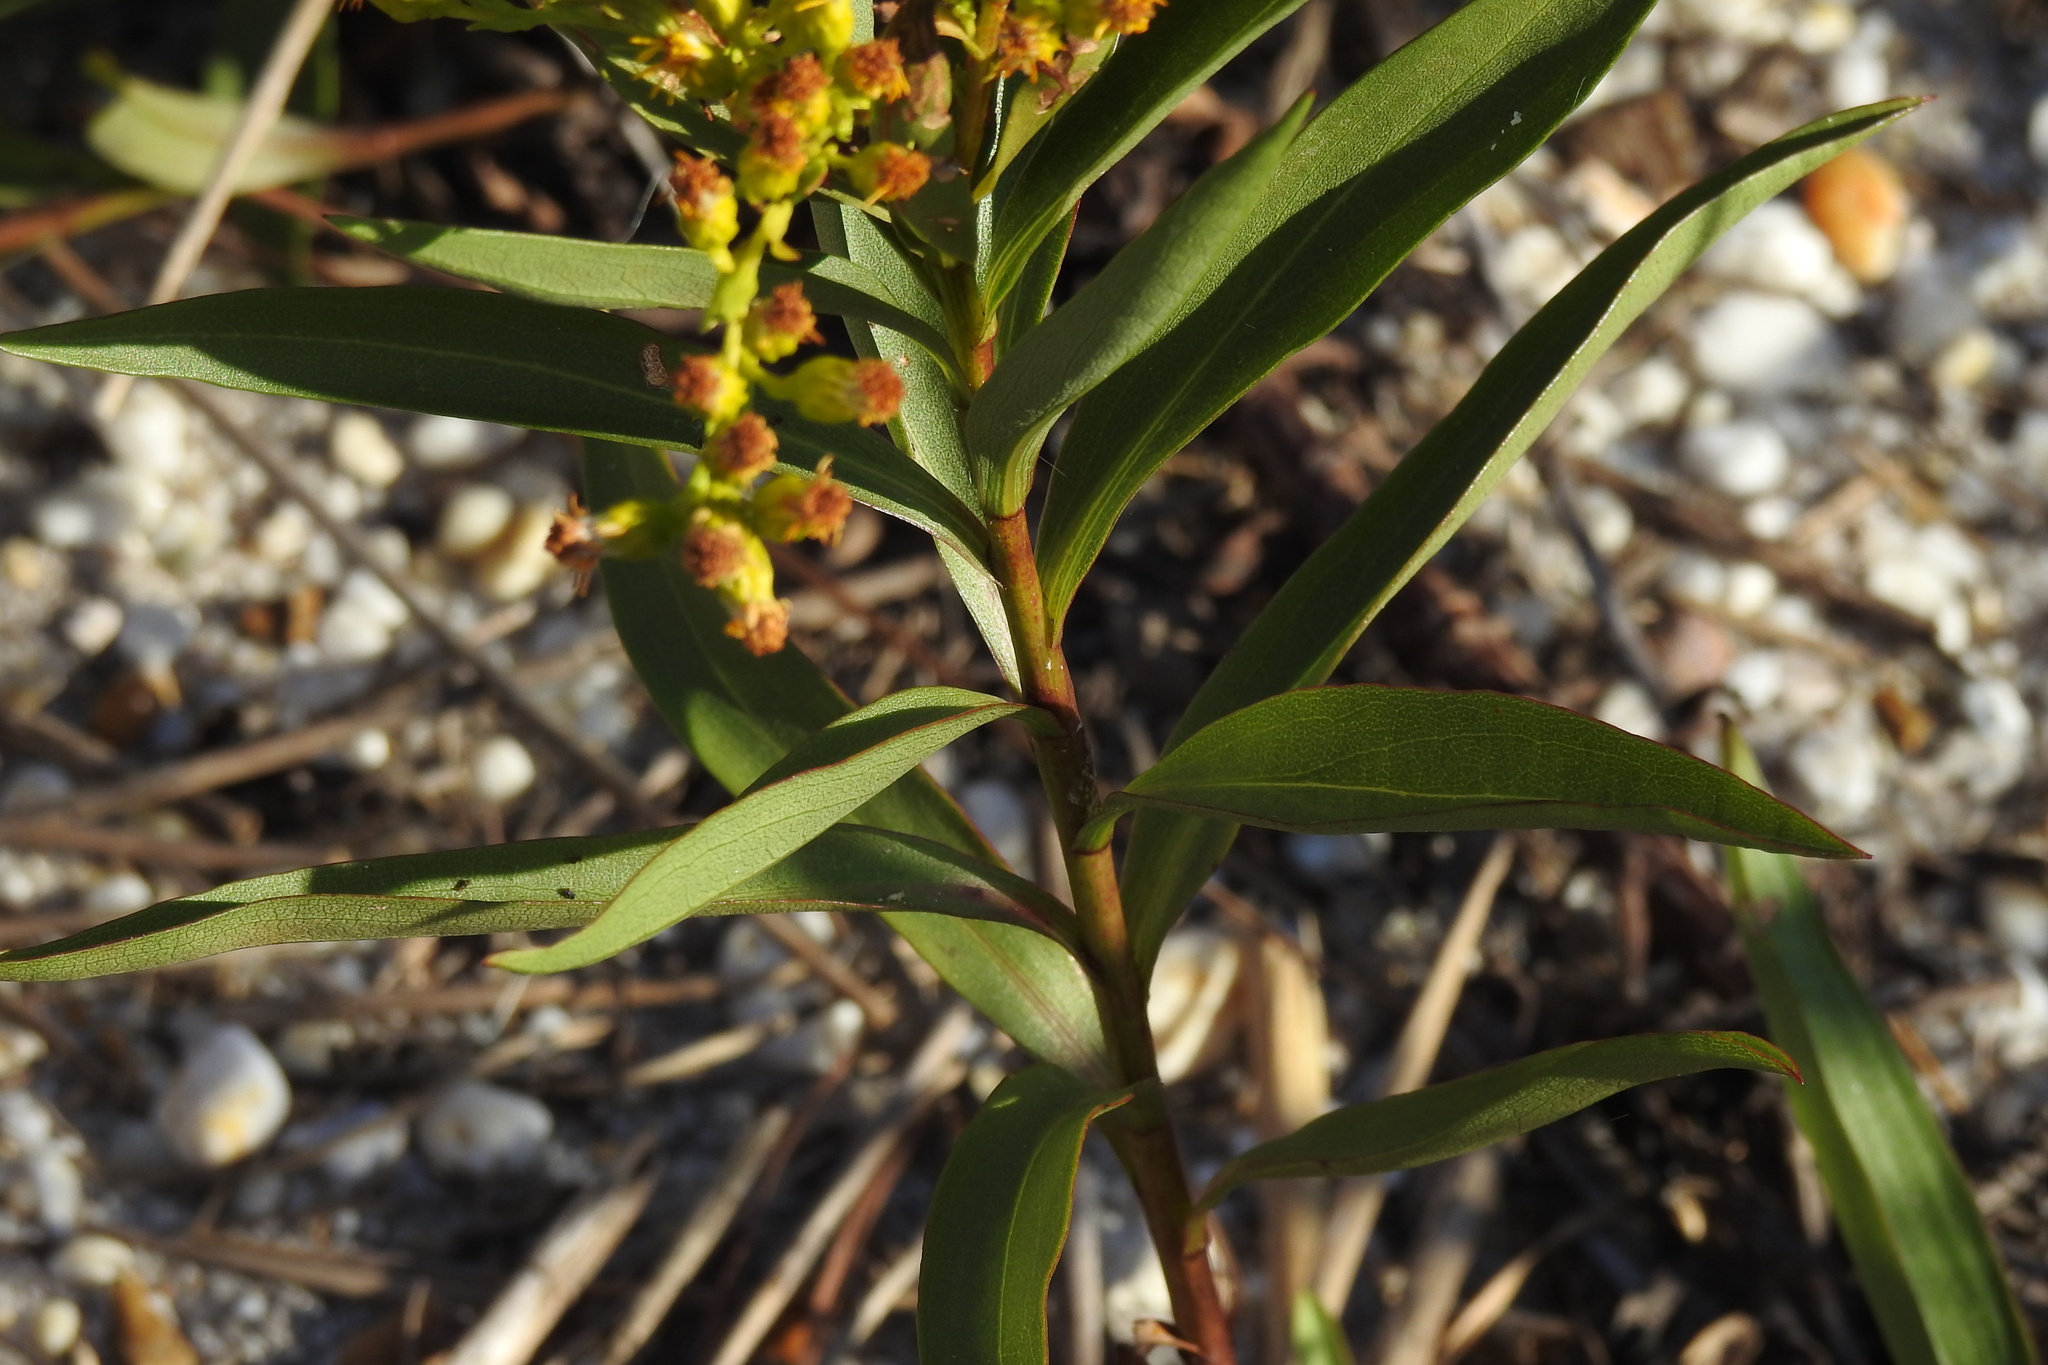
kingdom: Plantae
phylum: Tracheophyta
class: Magnoliopsida
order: Asterales
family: Asteraceae
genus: Solidago
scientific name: Solidago sempervirens
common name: Salt-marsh goldenrod
